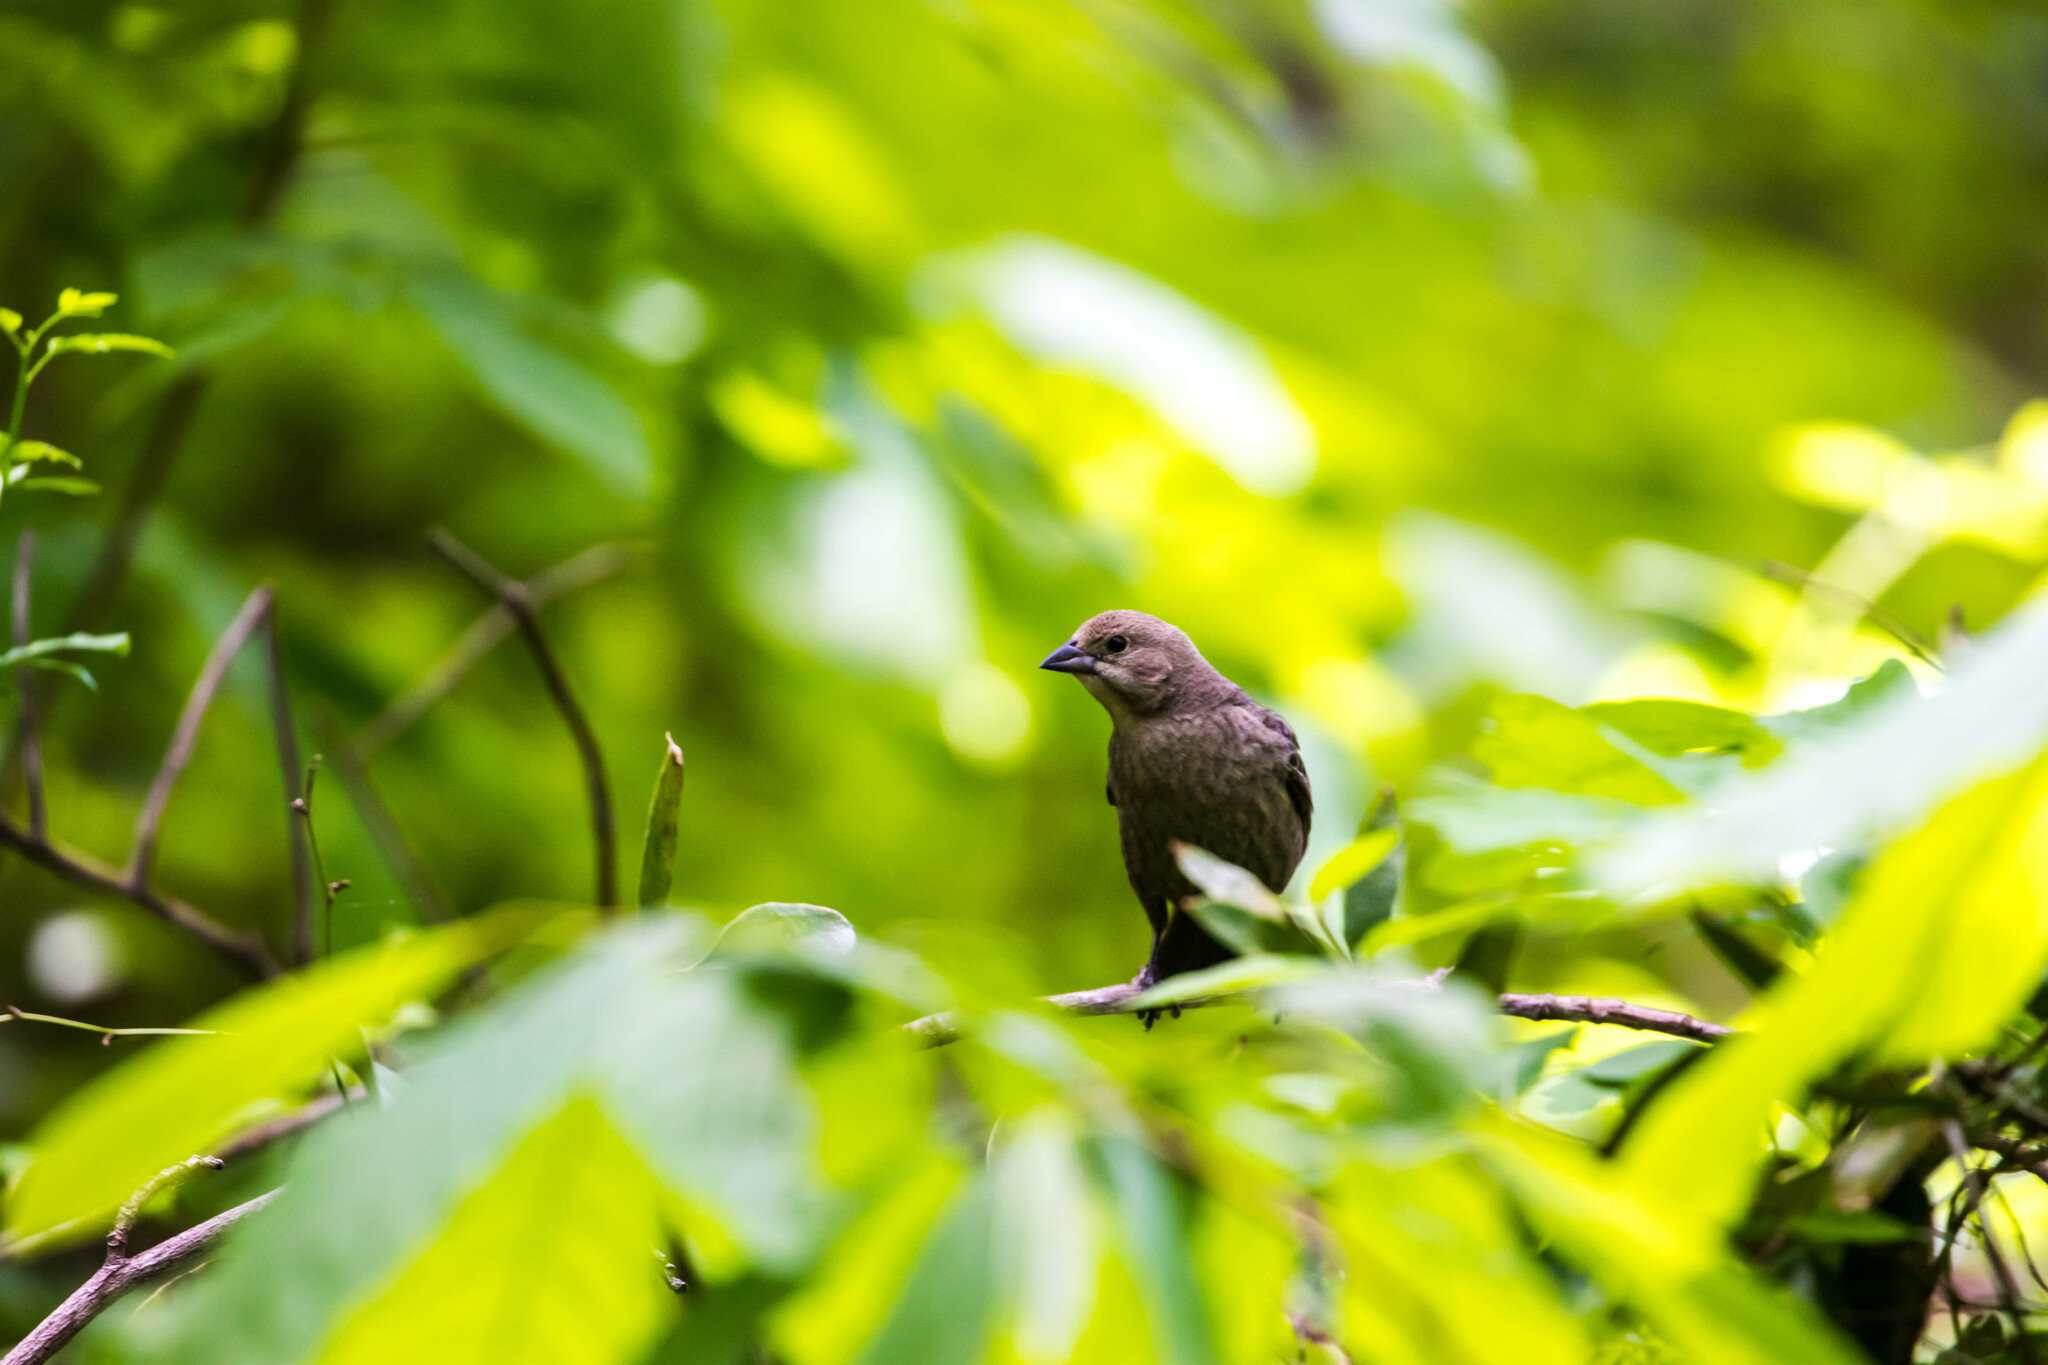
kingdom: Animalia
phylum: Chordata
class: Aves
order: Passeriformes
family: Icteridae
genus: Molothrus
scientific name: Molothrus ater
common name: Brown-headed cowbird
